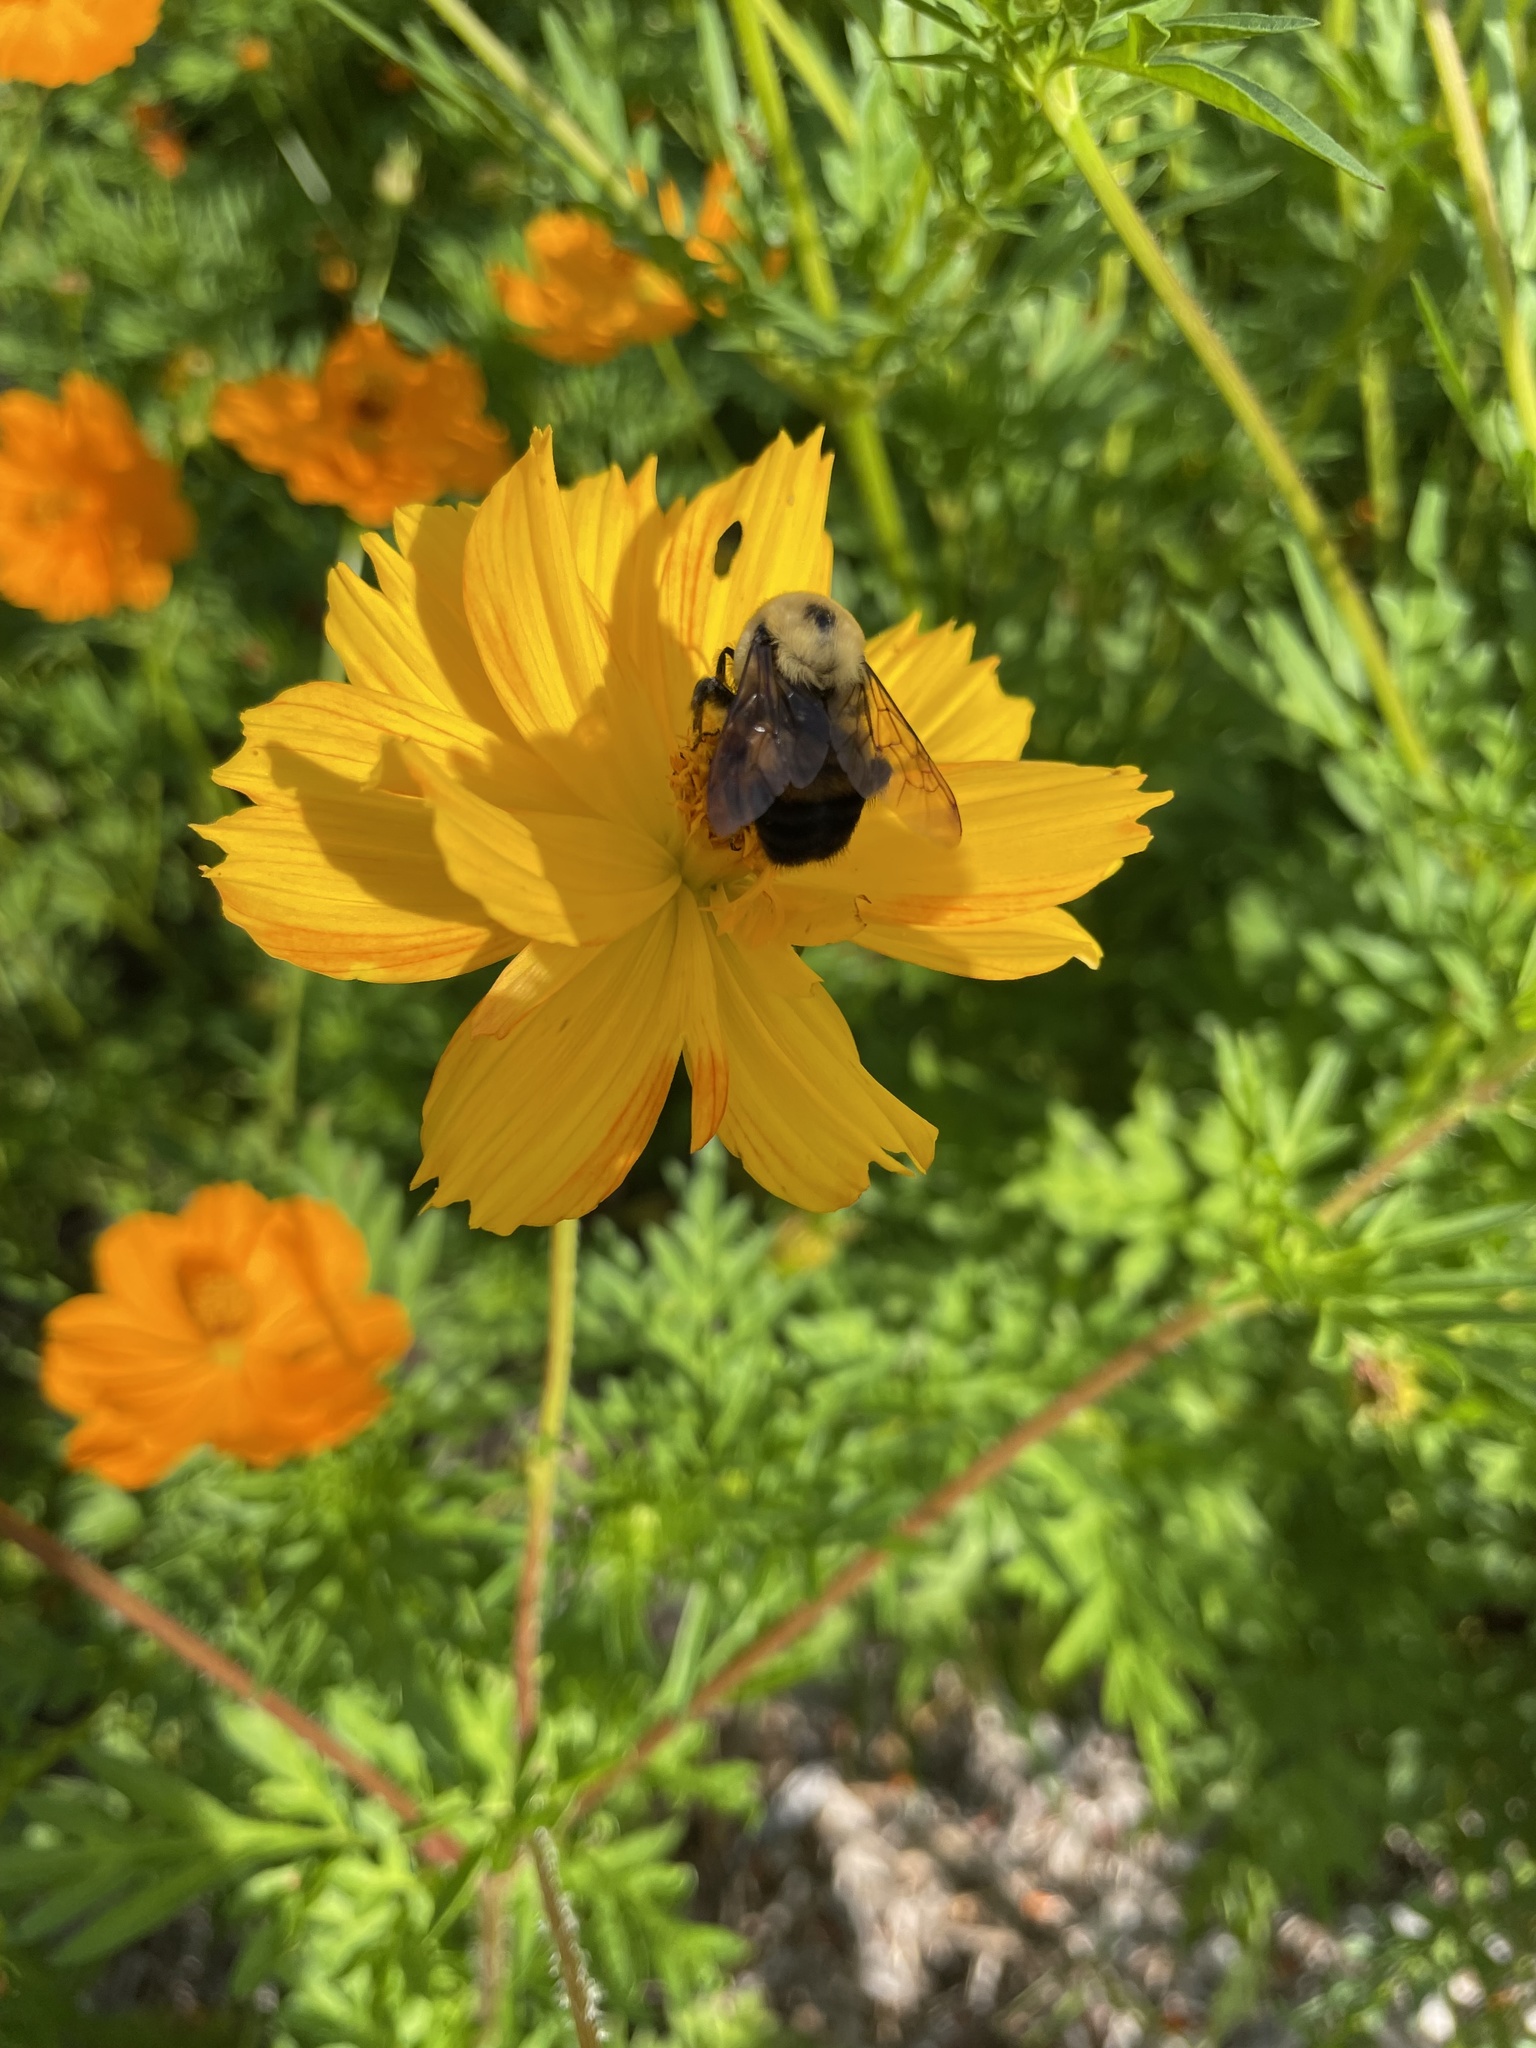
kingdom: Animalia
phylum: Arthropoda
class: Insecta
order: Hymenoptera
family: Apidae
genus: Bombus
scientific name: Bombus griseocollis
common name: Brown-belted bumble bee
